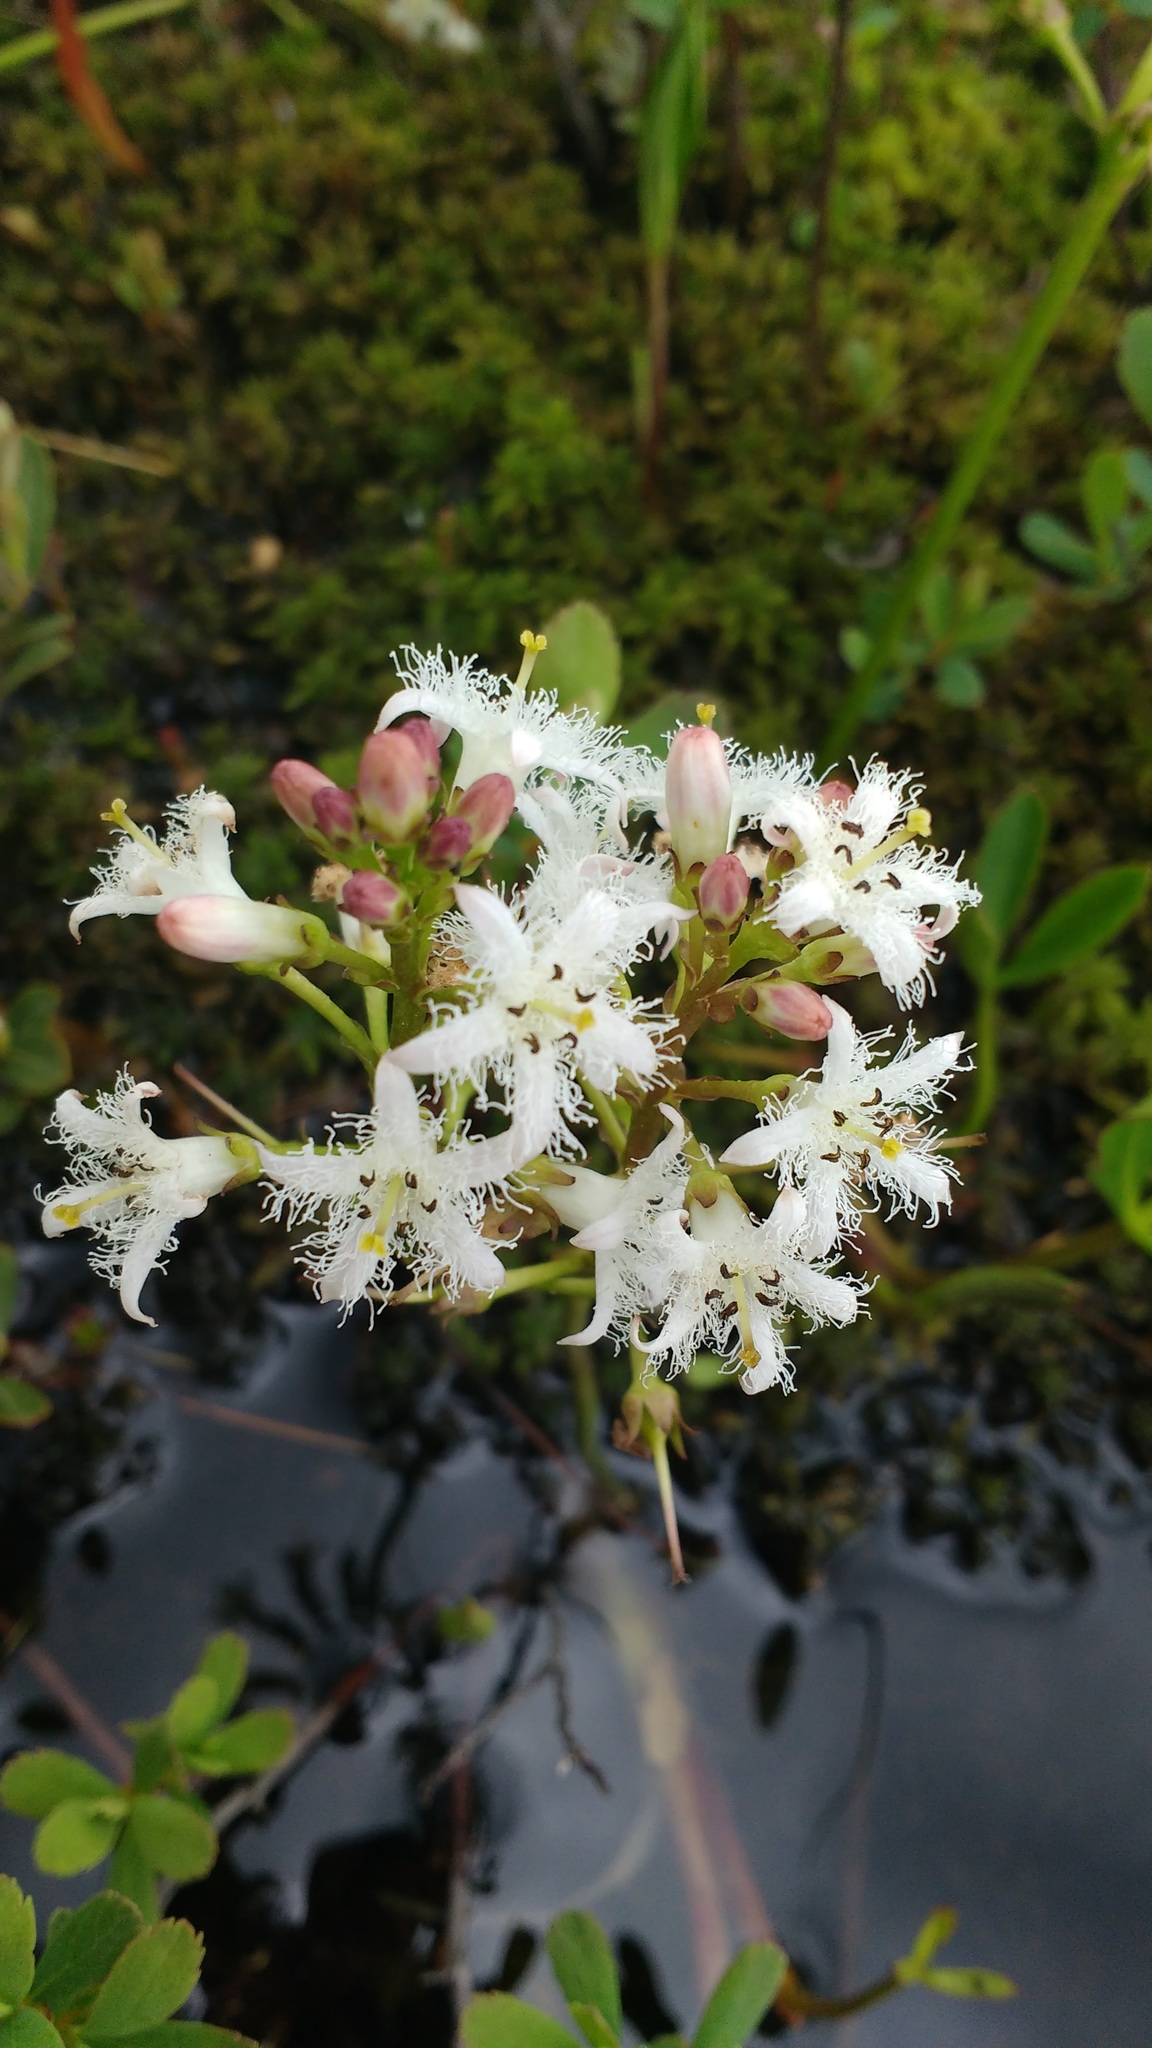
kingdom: Plantae
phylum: Tracheophyta
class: Magnoliopsida
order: Asterales
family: Menyanthaceae
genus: Menyanthes
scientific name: Menyanthes trifoliata
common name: Bogbean
